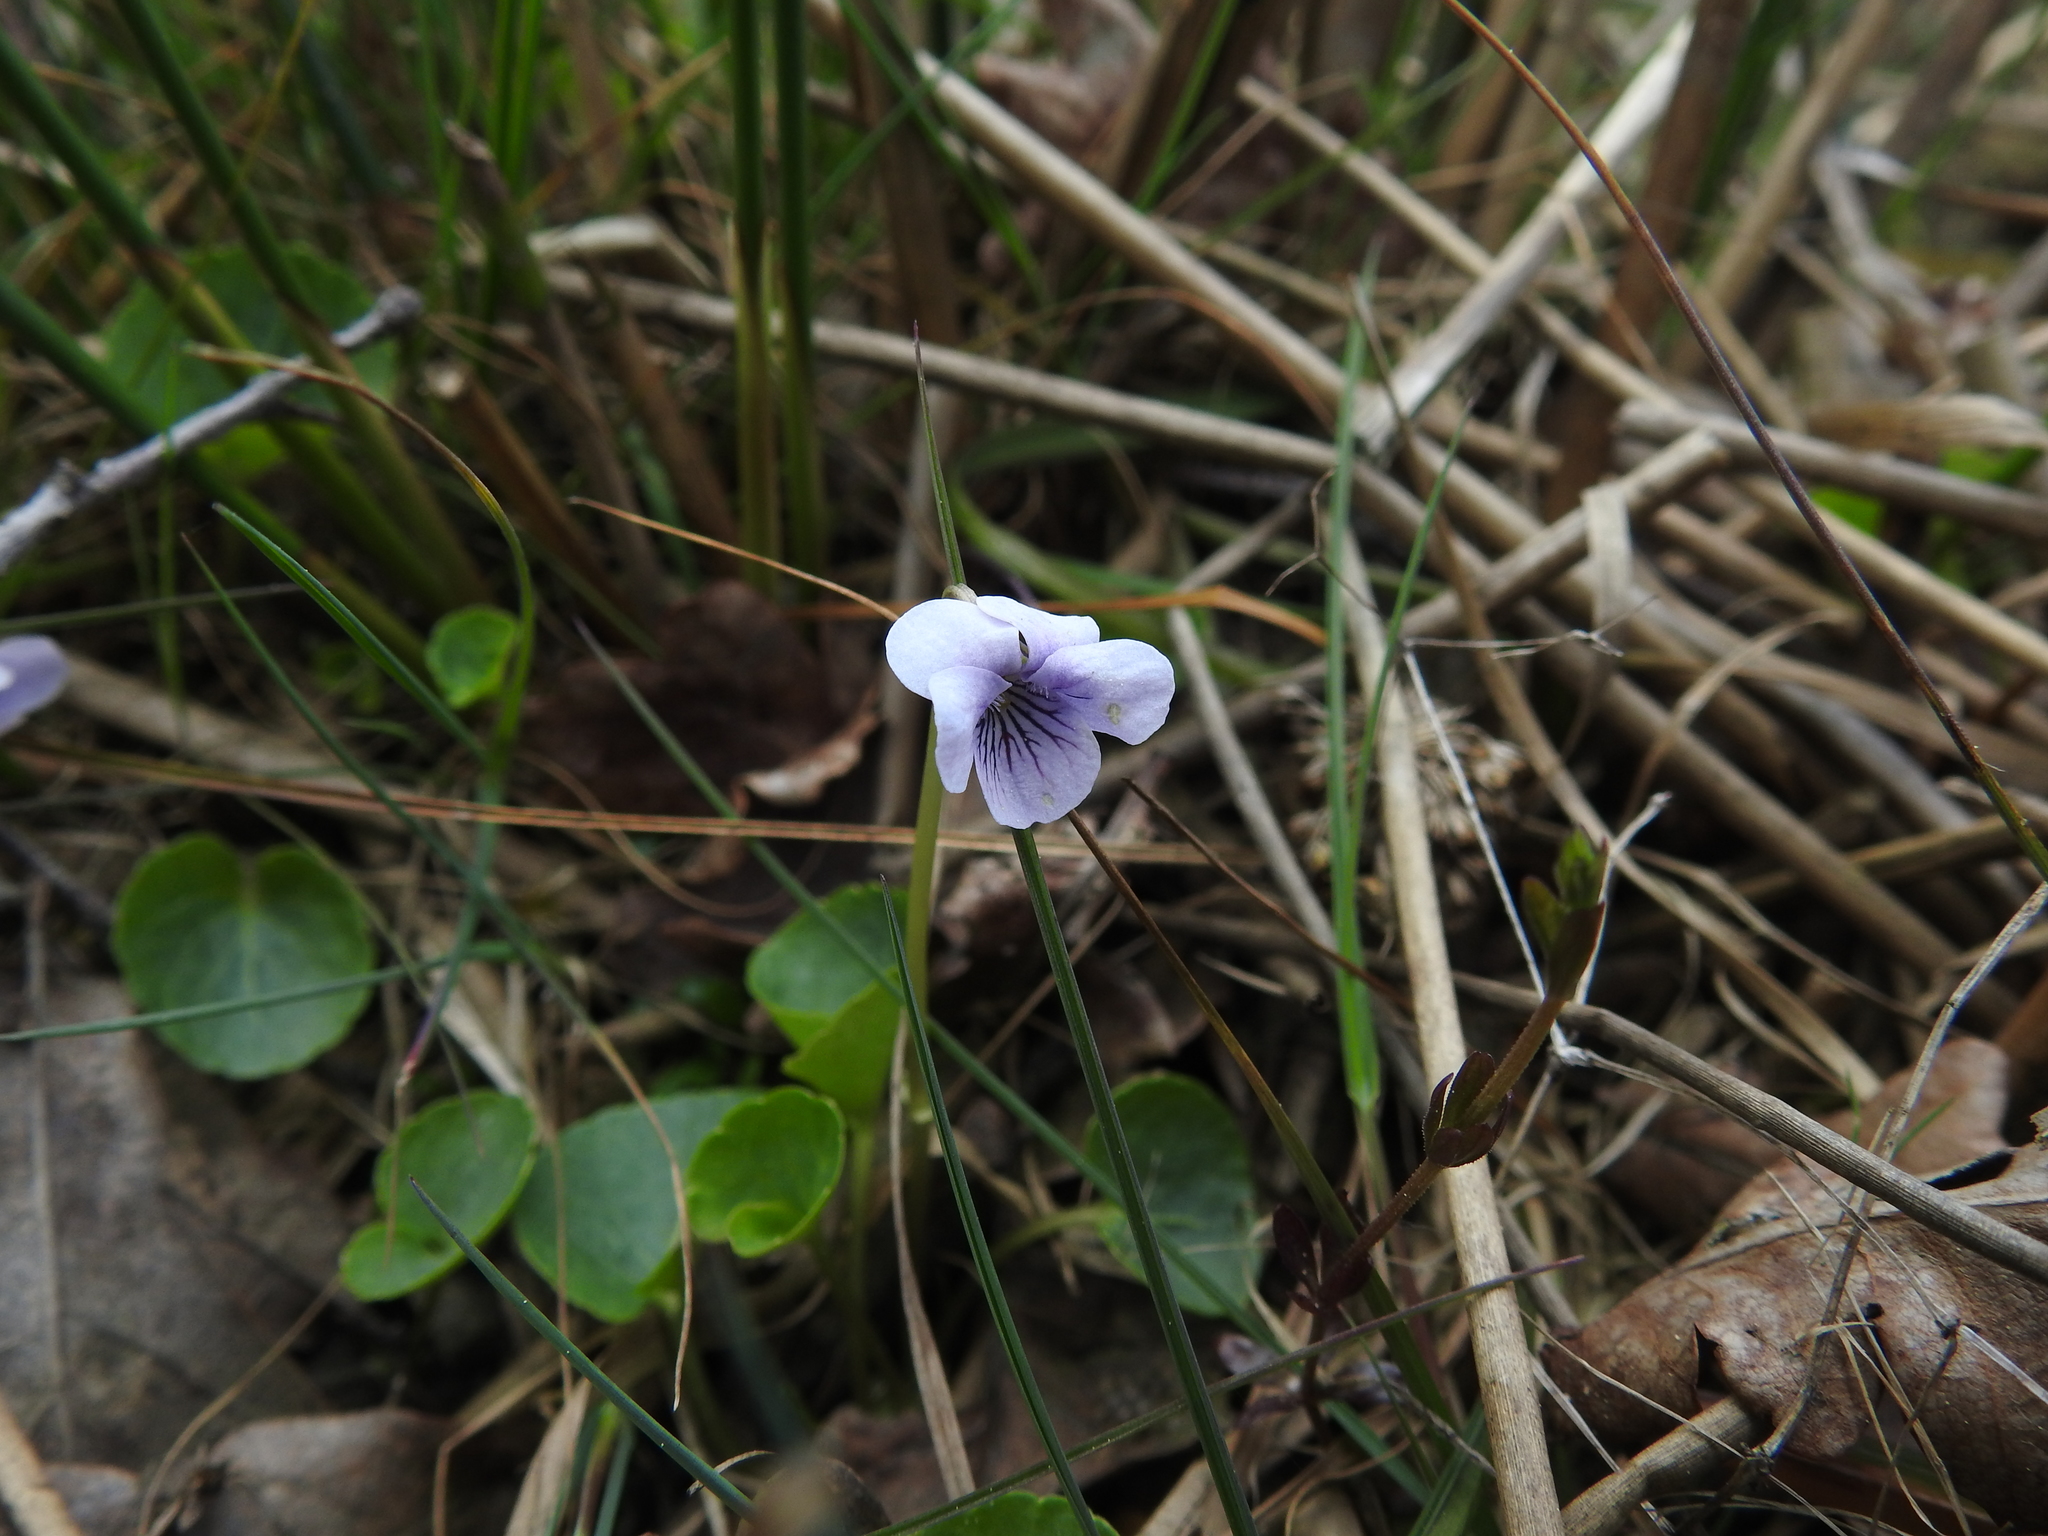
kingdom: Plantae
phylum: Tracheophyta
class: Magnoliopsida
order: Malpighiales
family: Violaceae
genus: Viola
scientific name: Viola palustris
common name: Marsh violet
